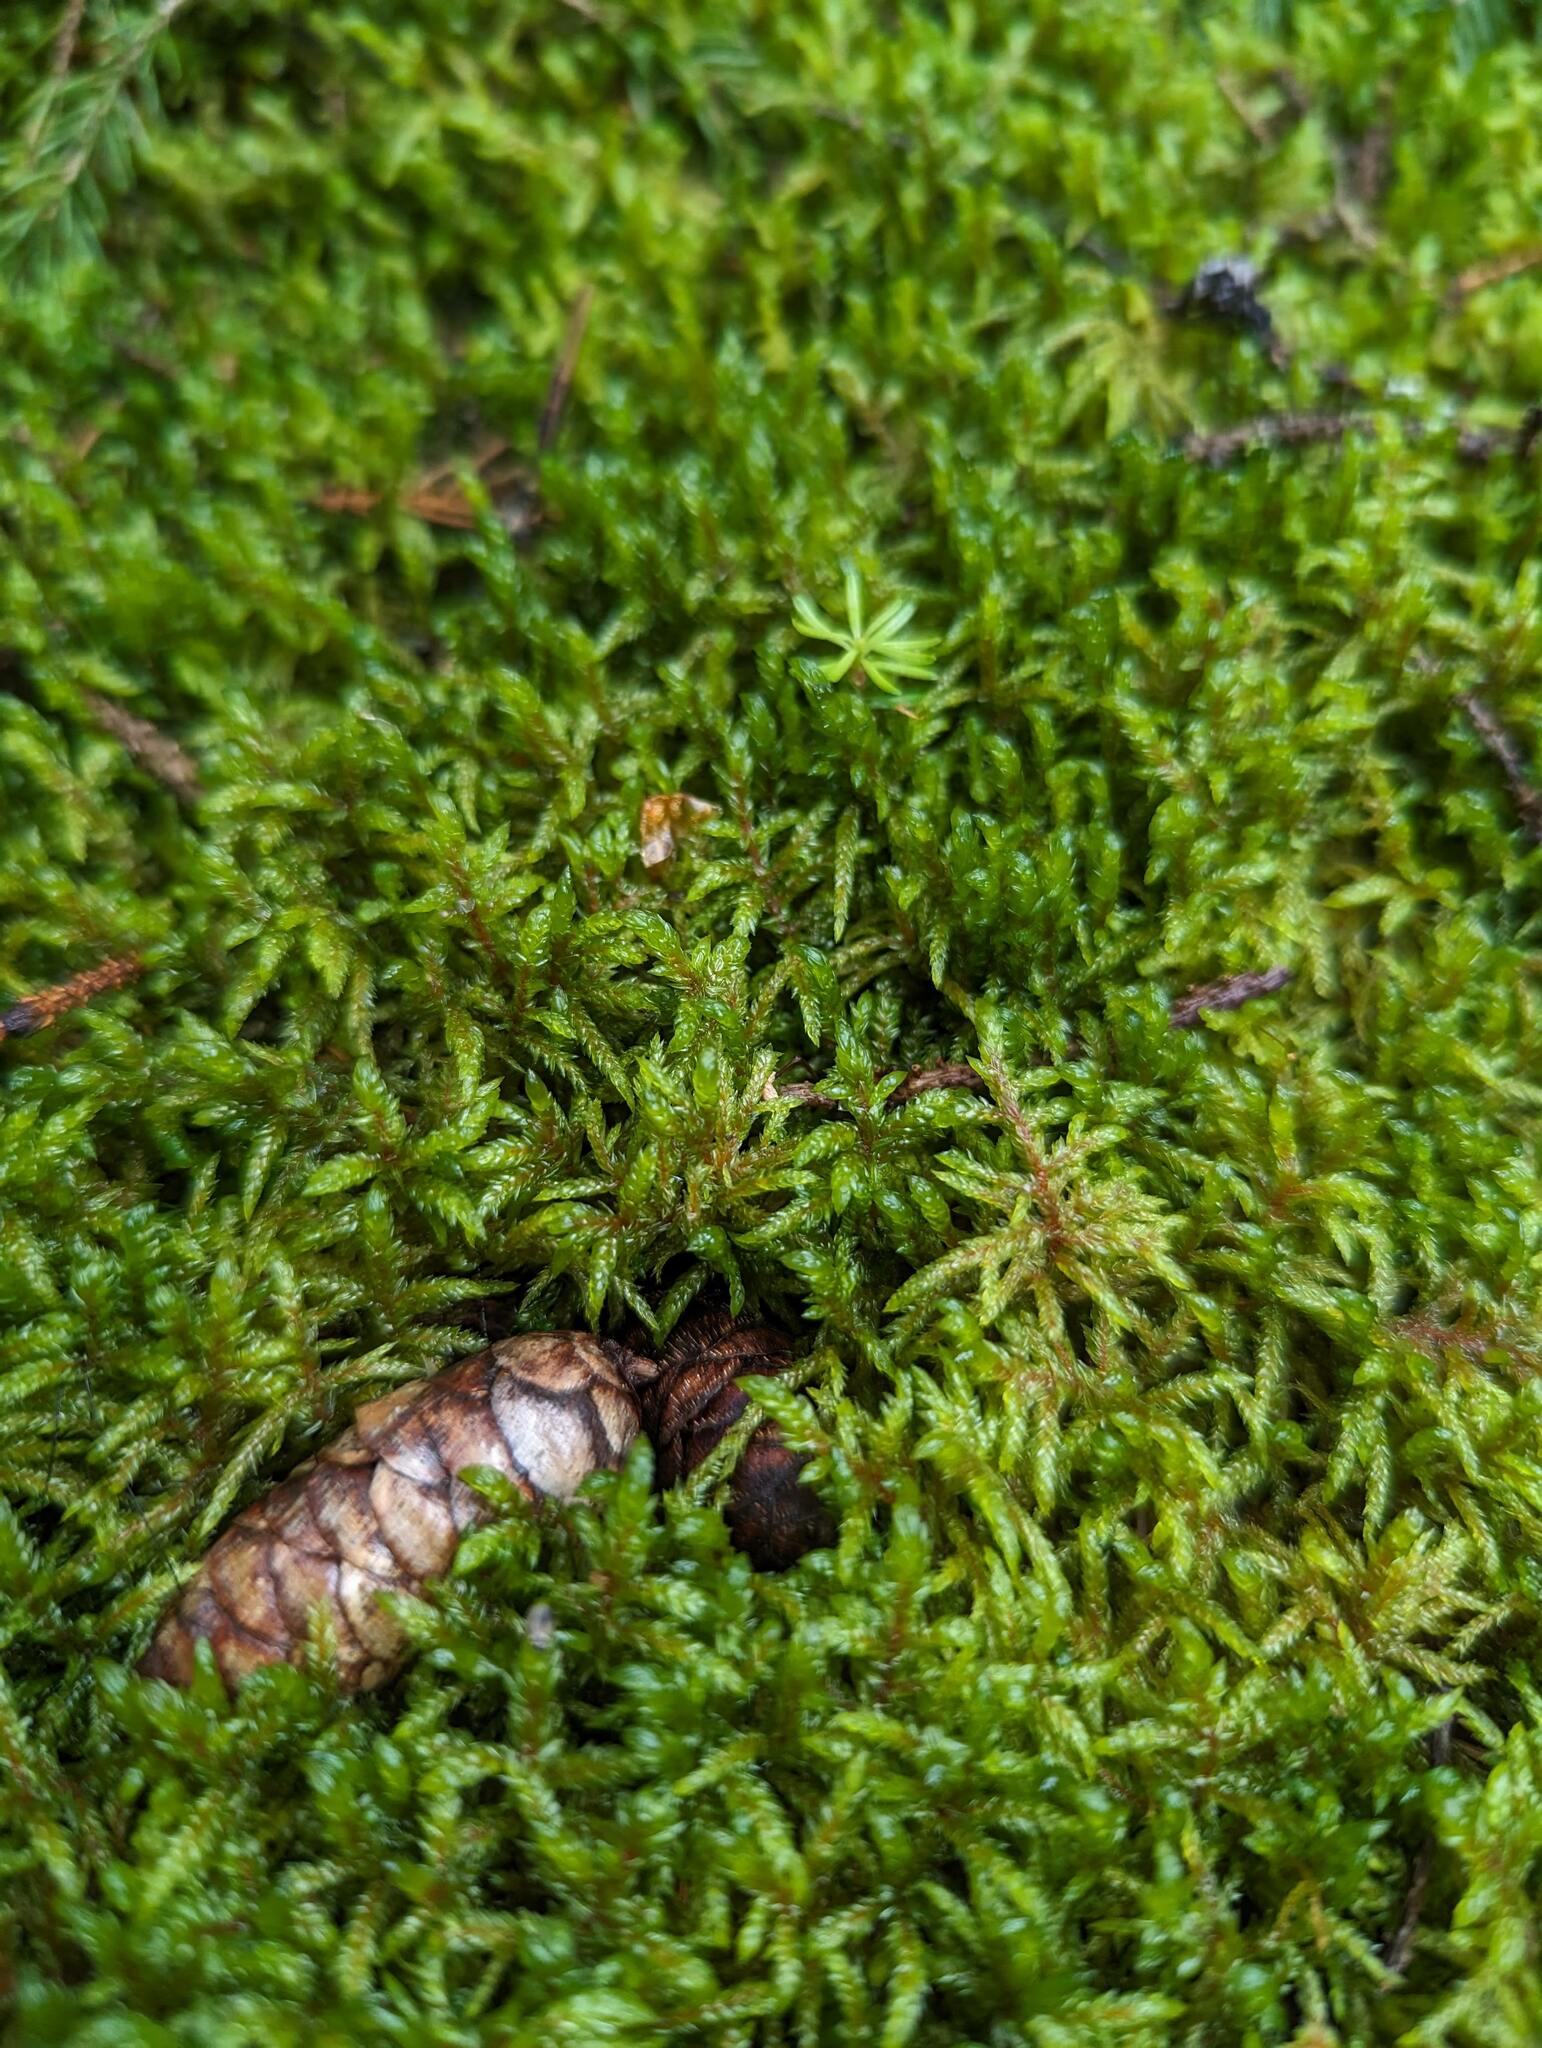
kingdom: Plantae
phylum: Bryophyta
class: Bryopsida
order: Hypnales
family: Hylocomiaceae
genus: Pleurozium
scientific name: Pleurozium schreberi
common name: Red-stemmed feather moss
